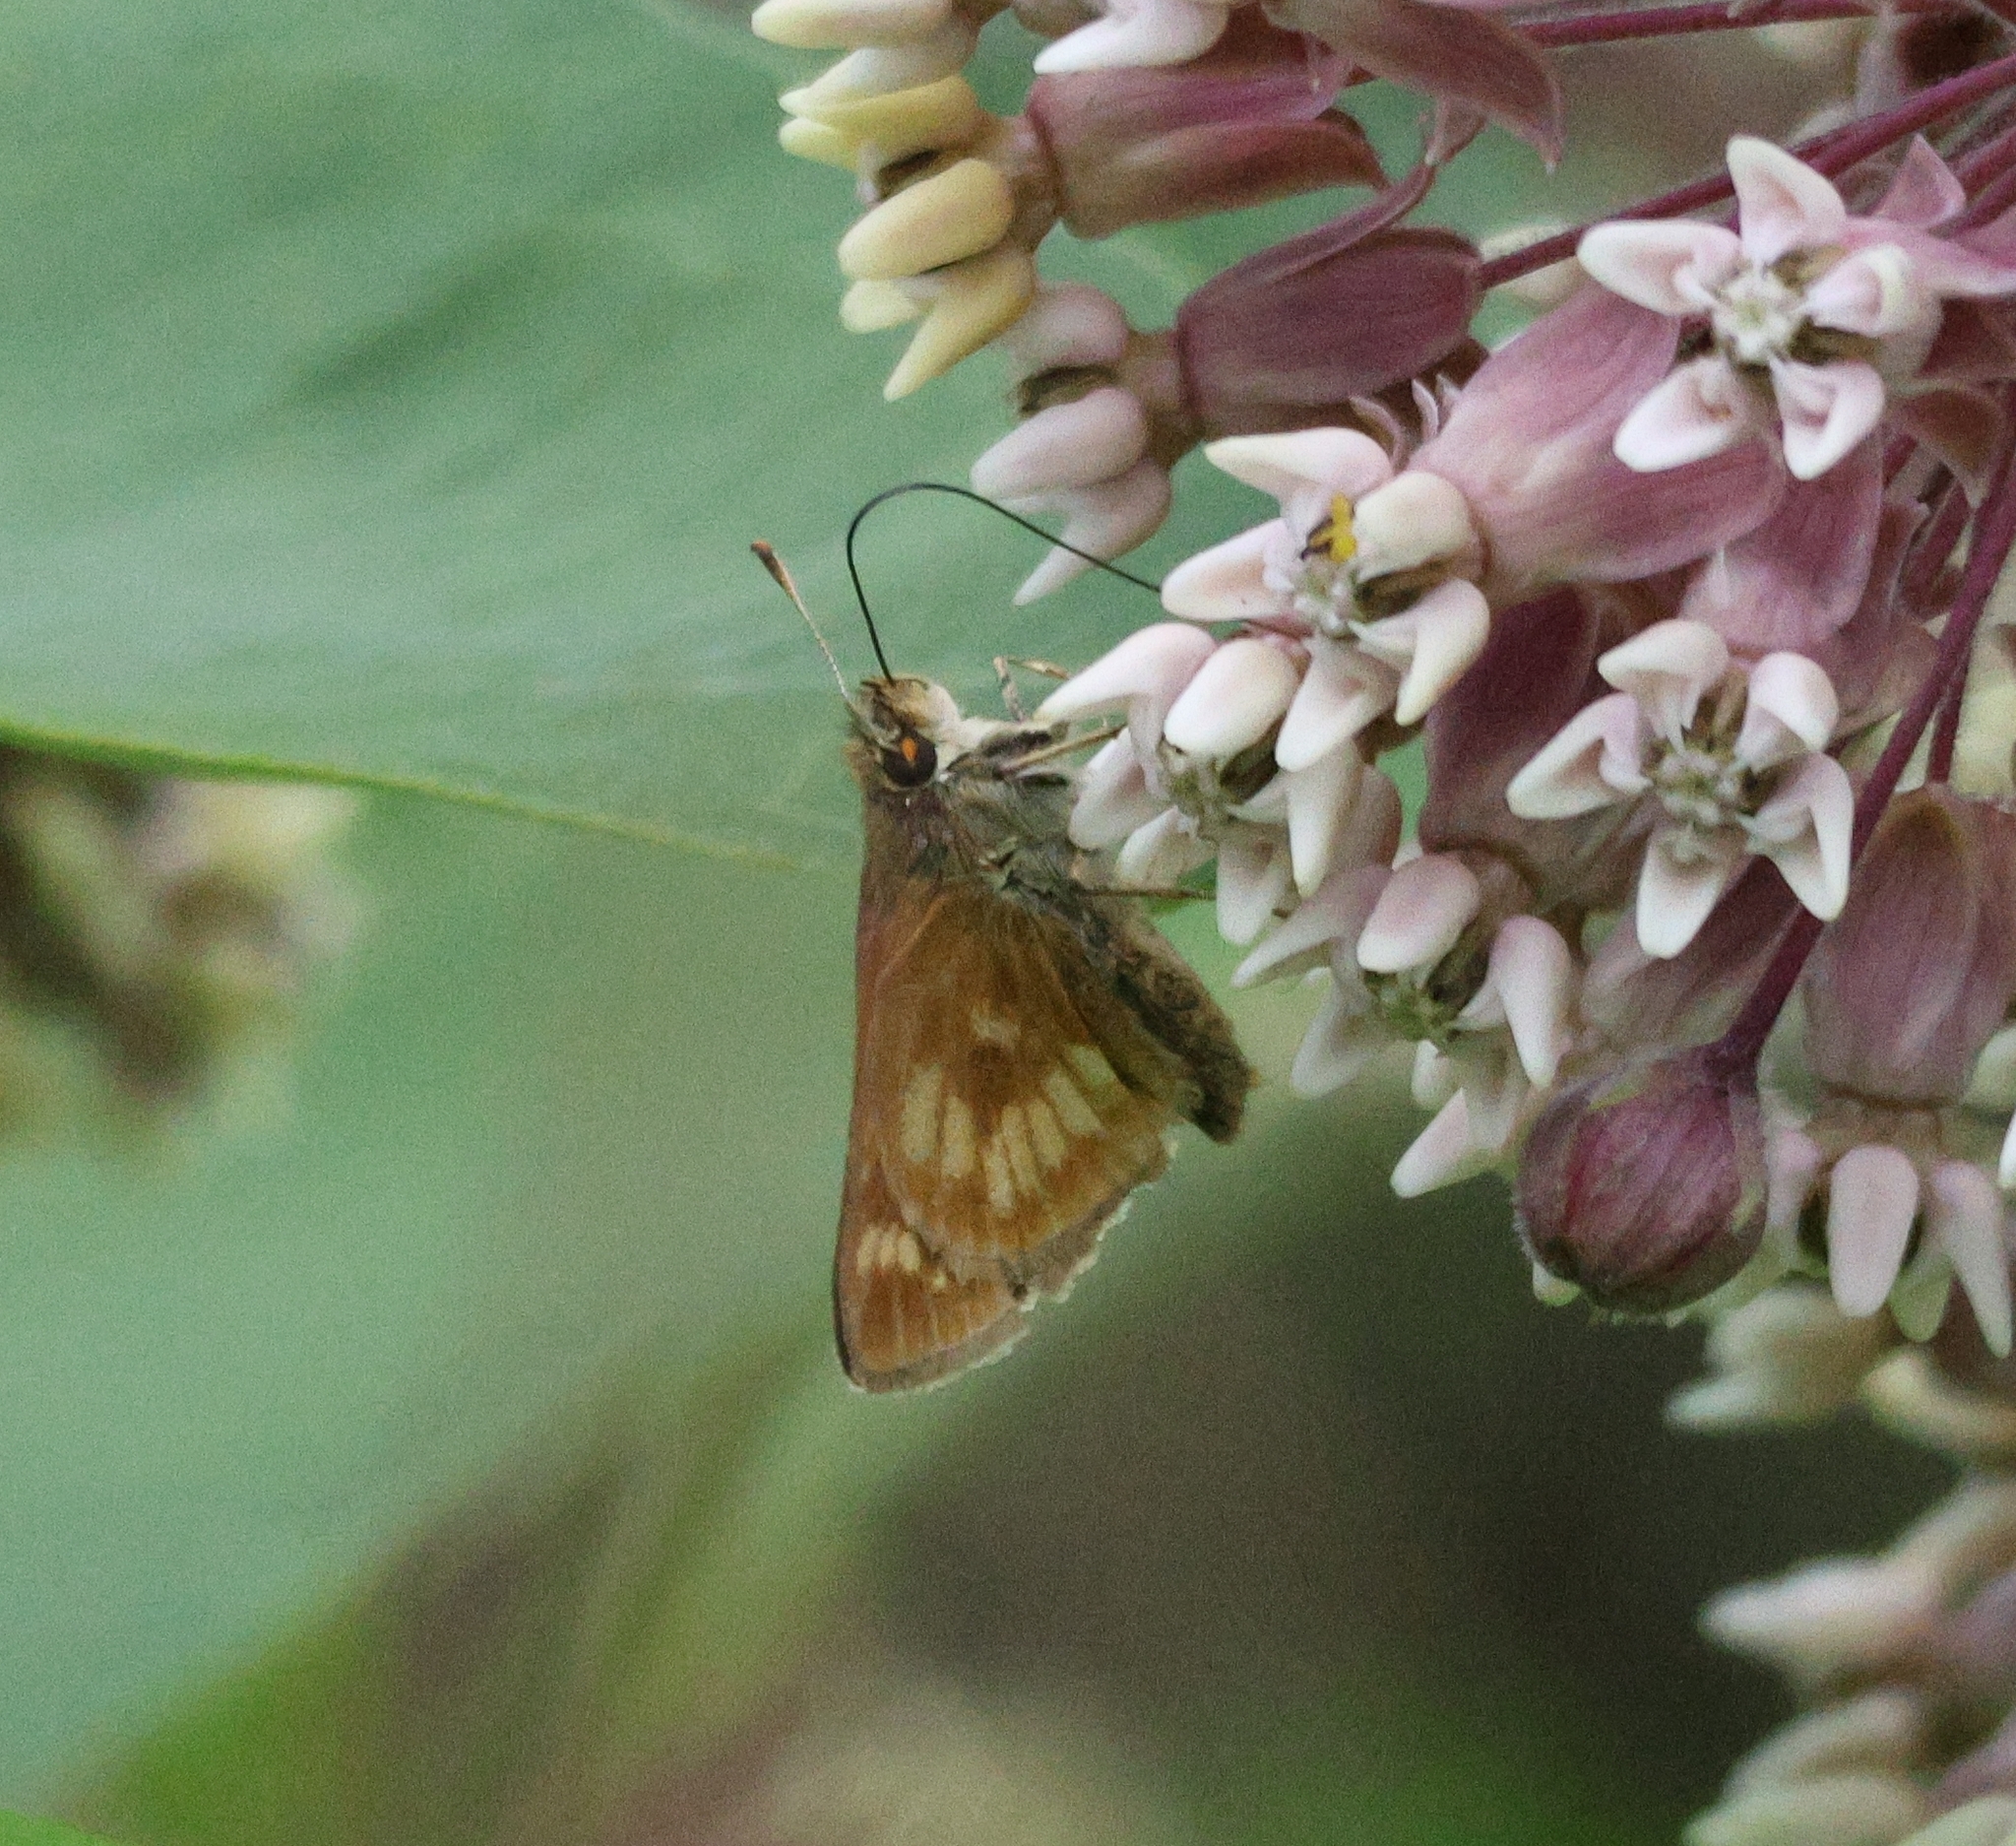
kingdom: Animalia
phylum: Arthropoda
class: Insecta
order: Lepidoptera
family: Hesperiidae
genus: Polites
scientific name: Polites mystic
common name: Long dash
